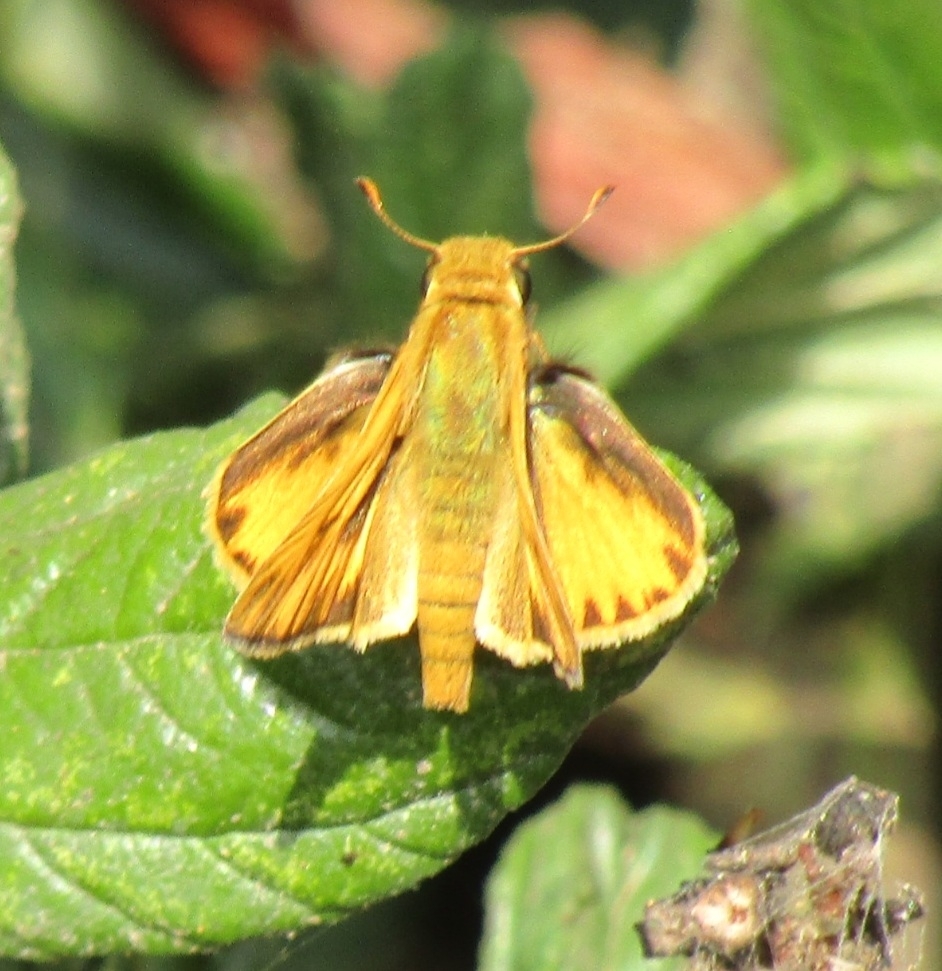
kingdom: Animalia
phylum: Arthropoda
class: Insecta
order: Lepidoptera
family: Hesperiidae
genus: Hylephila
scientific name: Hylephila phyleus
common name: Fiery skipper
